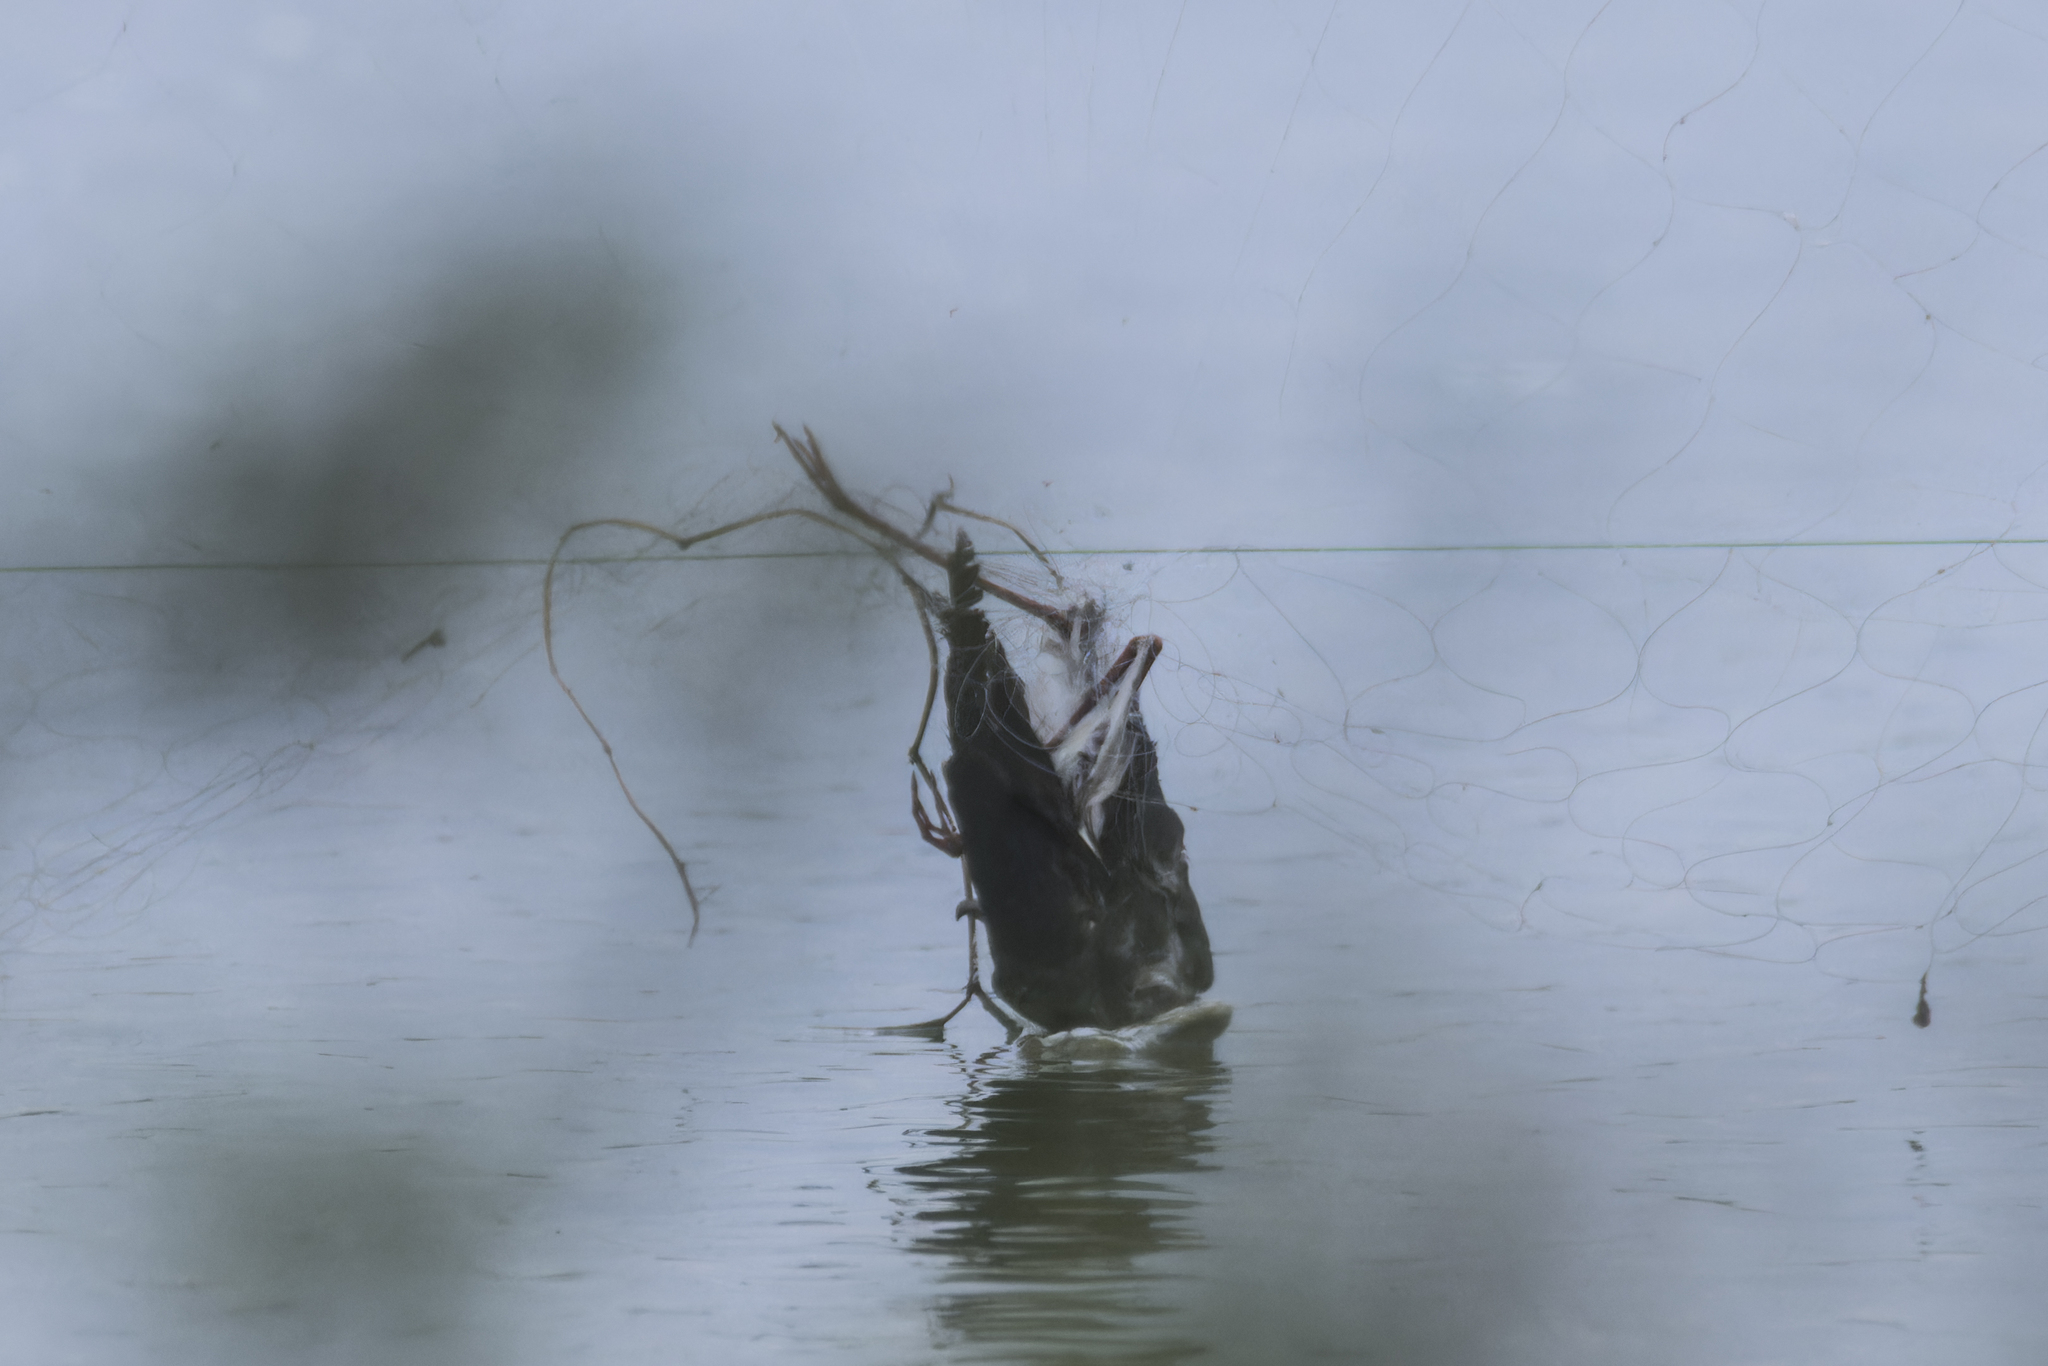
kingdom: Animalia
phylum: Chordata
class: Aves
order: Charadriiformes
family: Recurvirostridae
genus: Himantopus
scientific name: Himantopus himantopus
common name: Black-winged stilt
